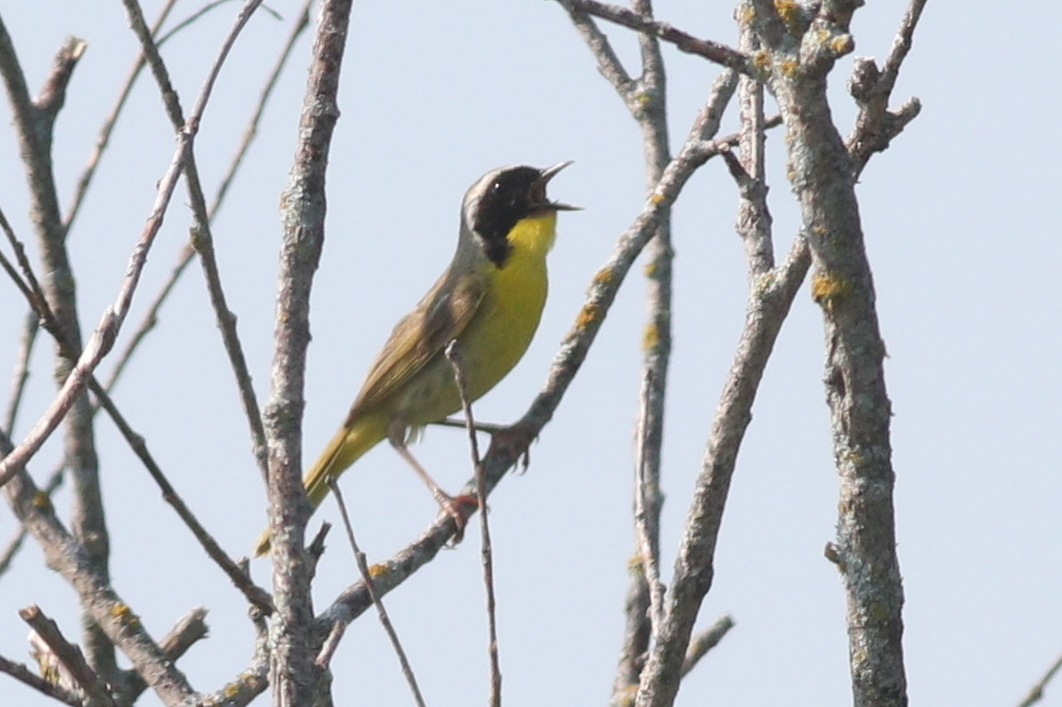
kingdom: Animalia
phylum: Chordata
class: Aves
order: Passeriformes
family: Parulidae
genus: Geothlypis
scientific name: Geothlypis trichas
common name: Common yellowthroat
